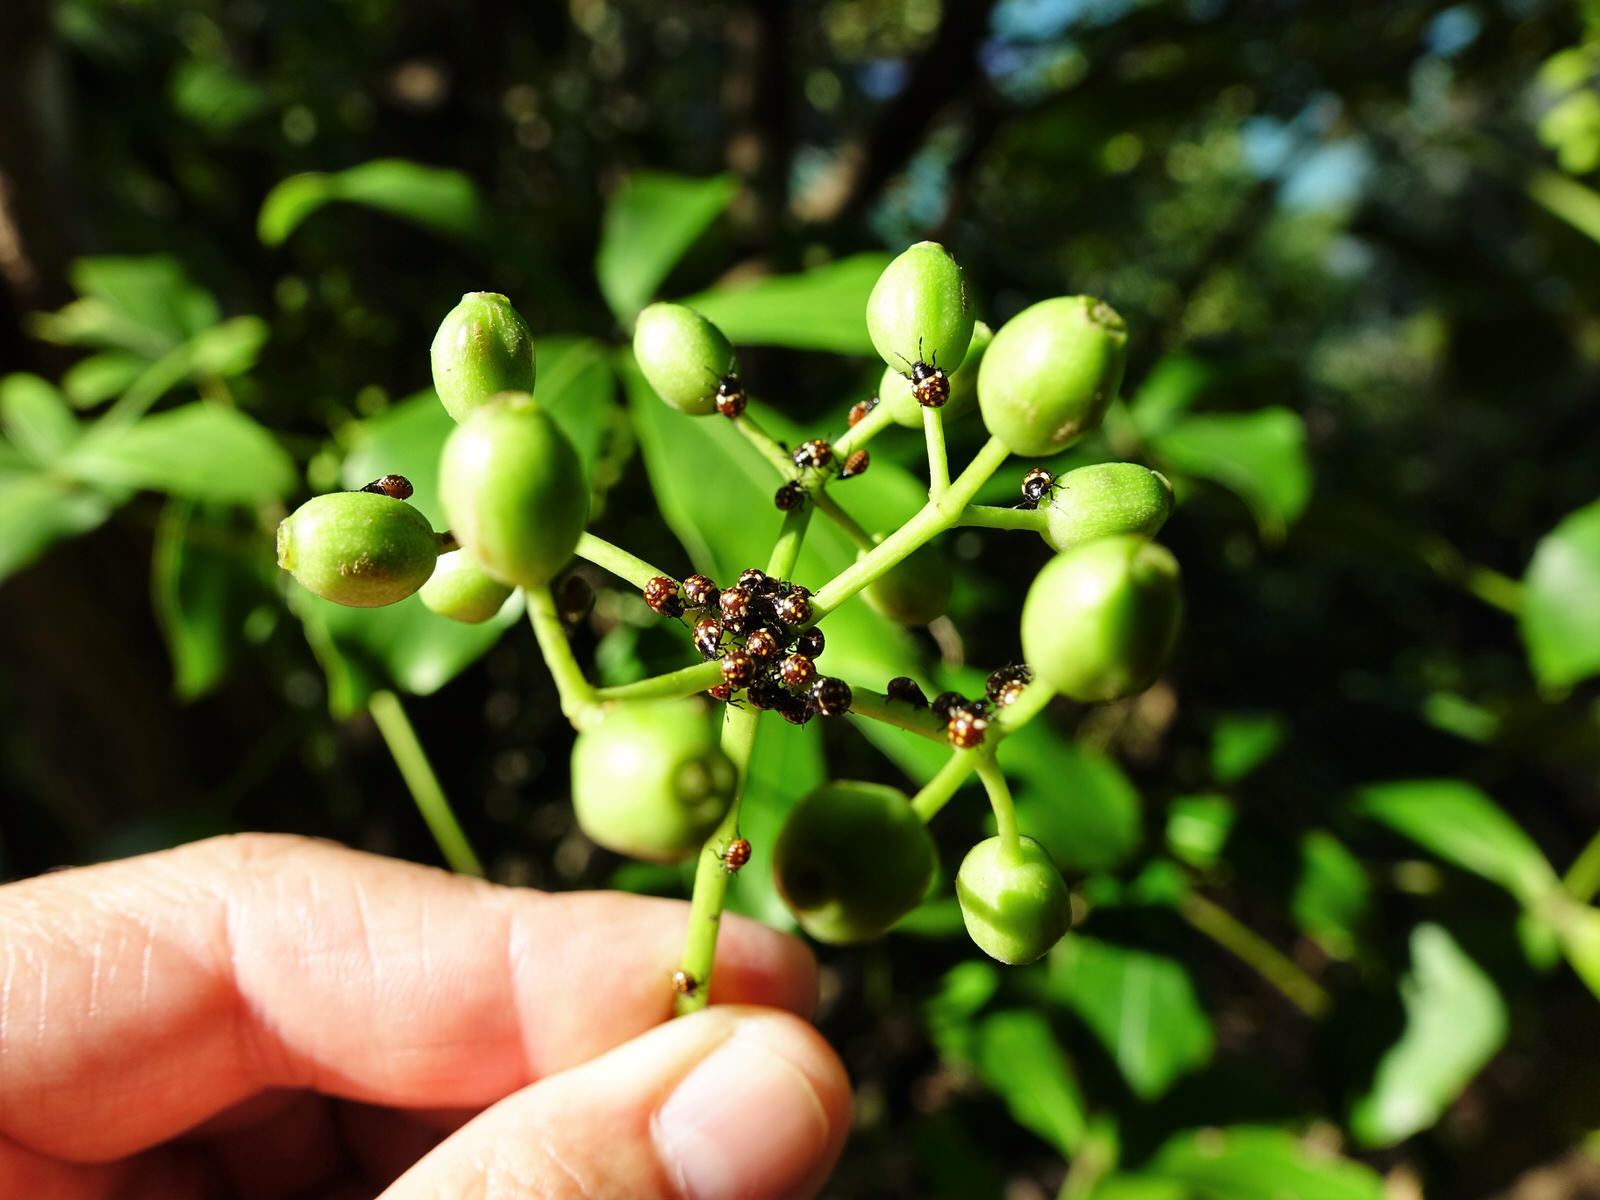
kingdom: Animalia
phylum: Arthropoda
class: Insecta
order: Hemiptera
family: Pentatomidae
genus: Nezara
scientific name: Nezara viridula
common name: Southern green stink bug
